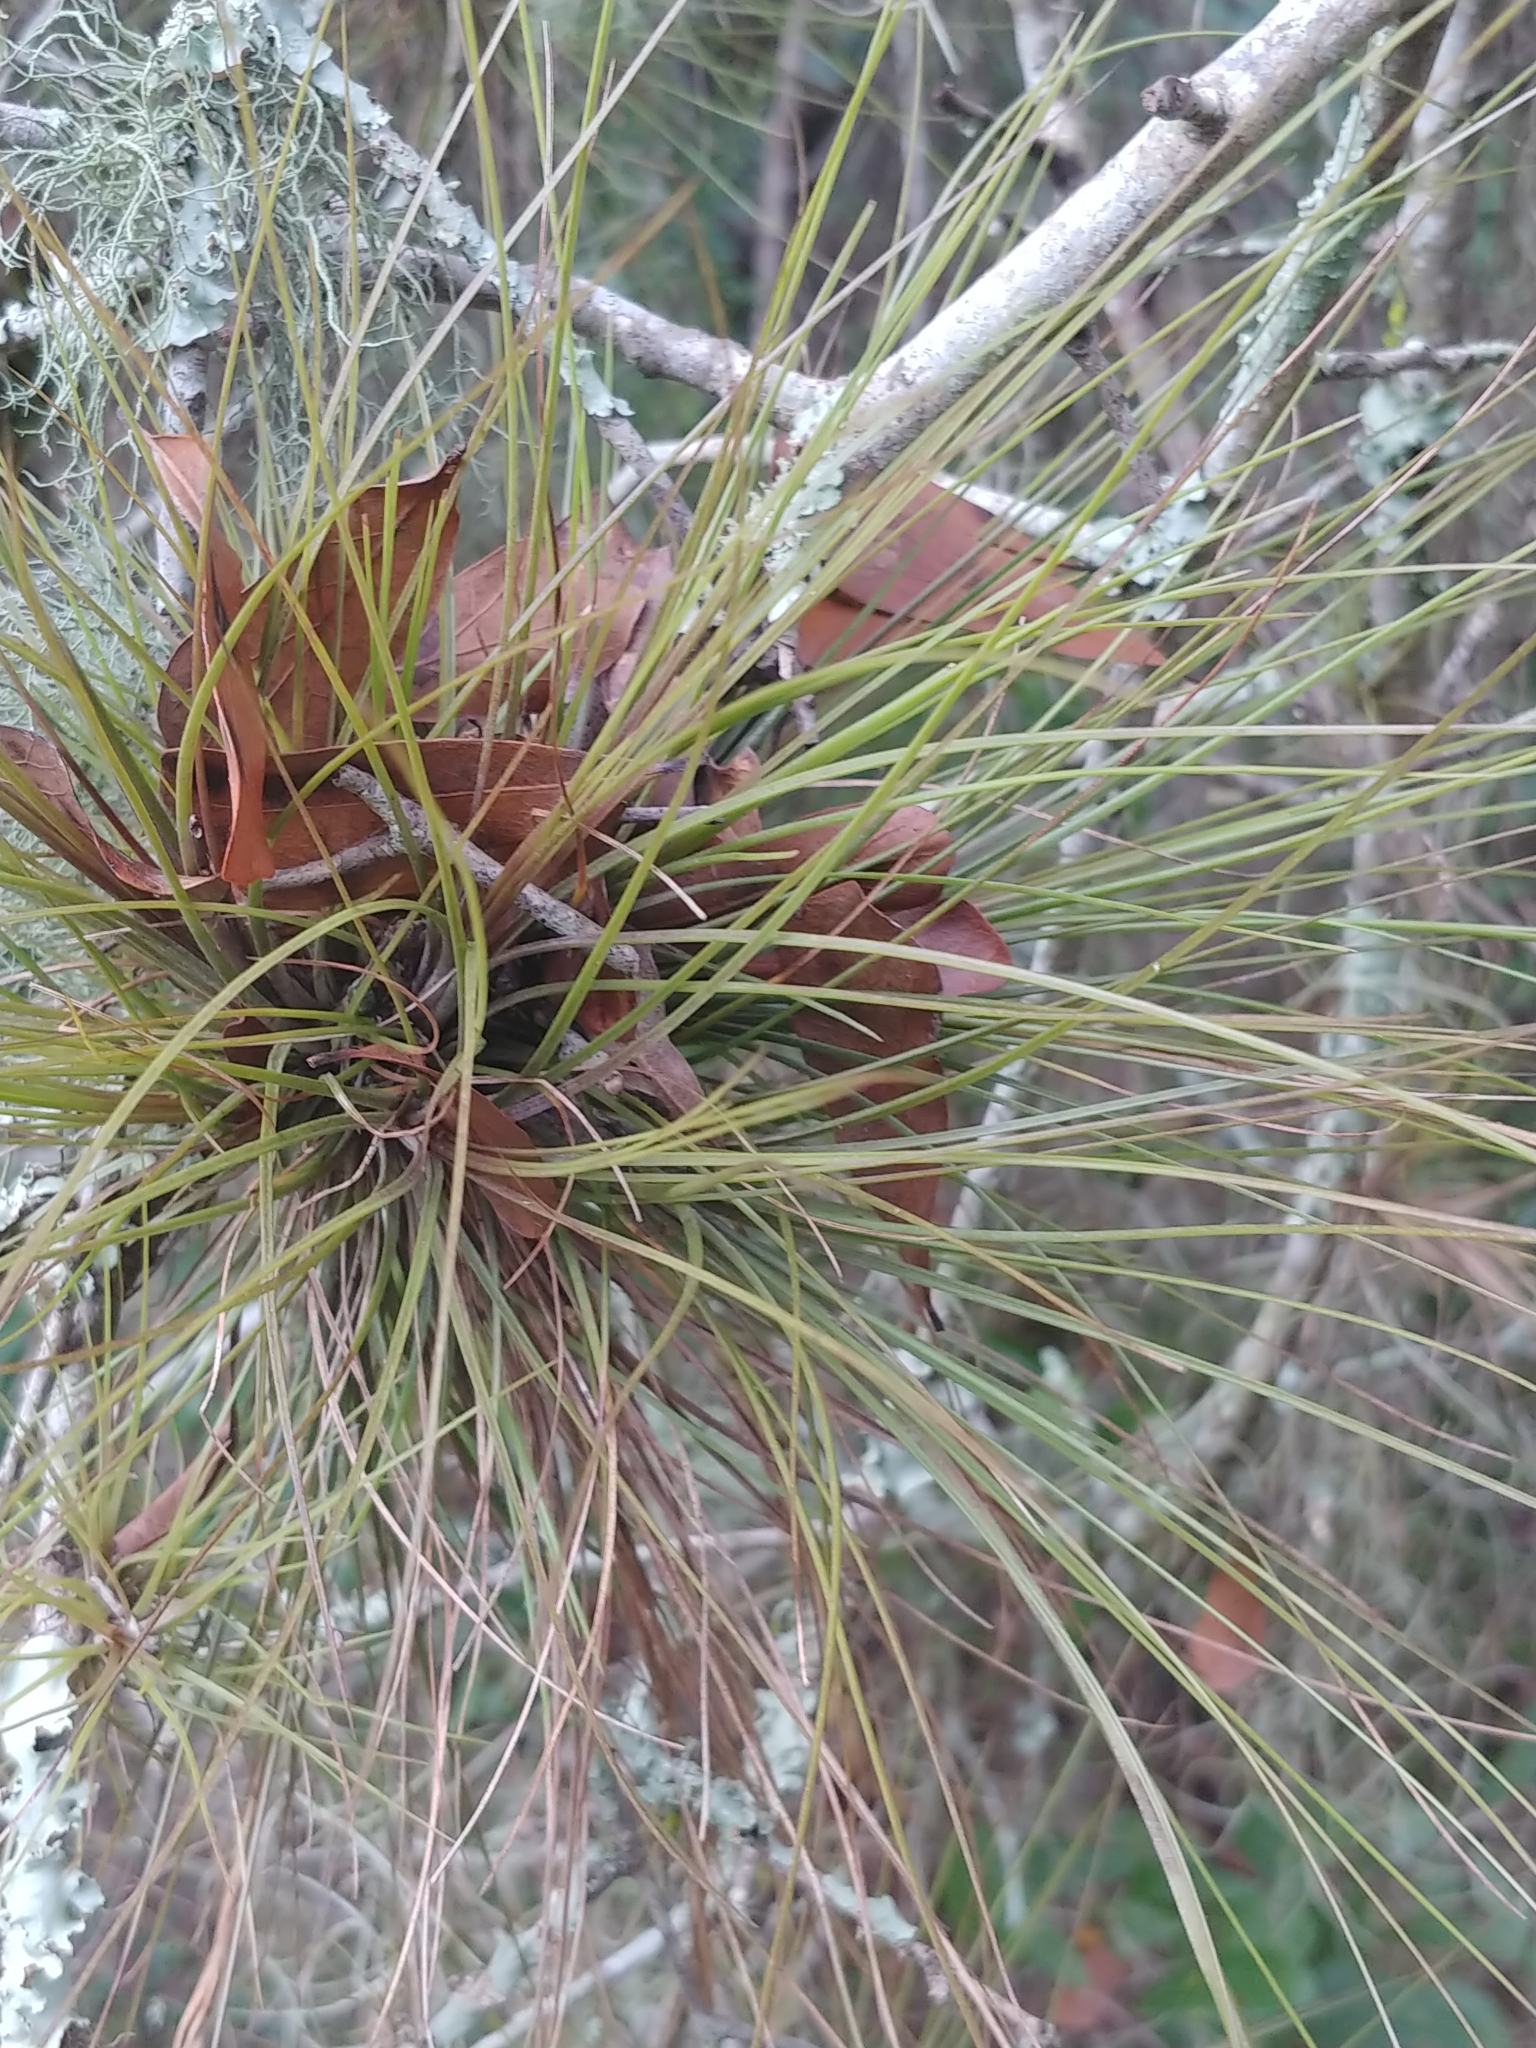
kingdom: Plantae
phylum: Tracheophyta
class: Liliopsida
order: Poales
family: Bromeliaceae
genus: Tillandsia
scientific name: Tillandsia setacea
